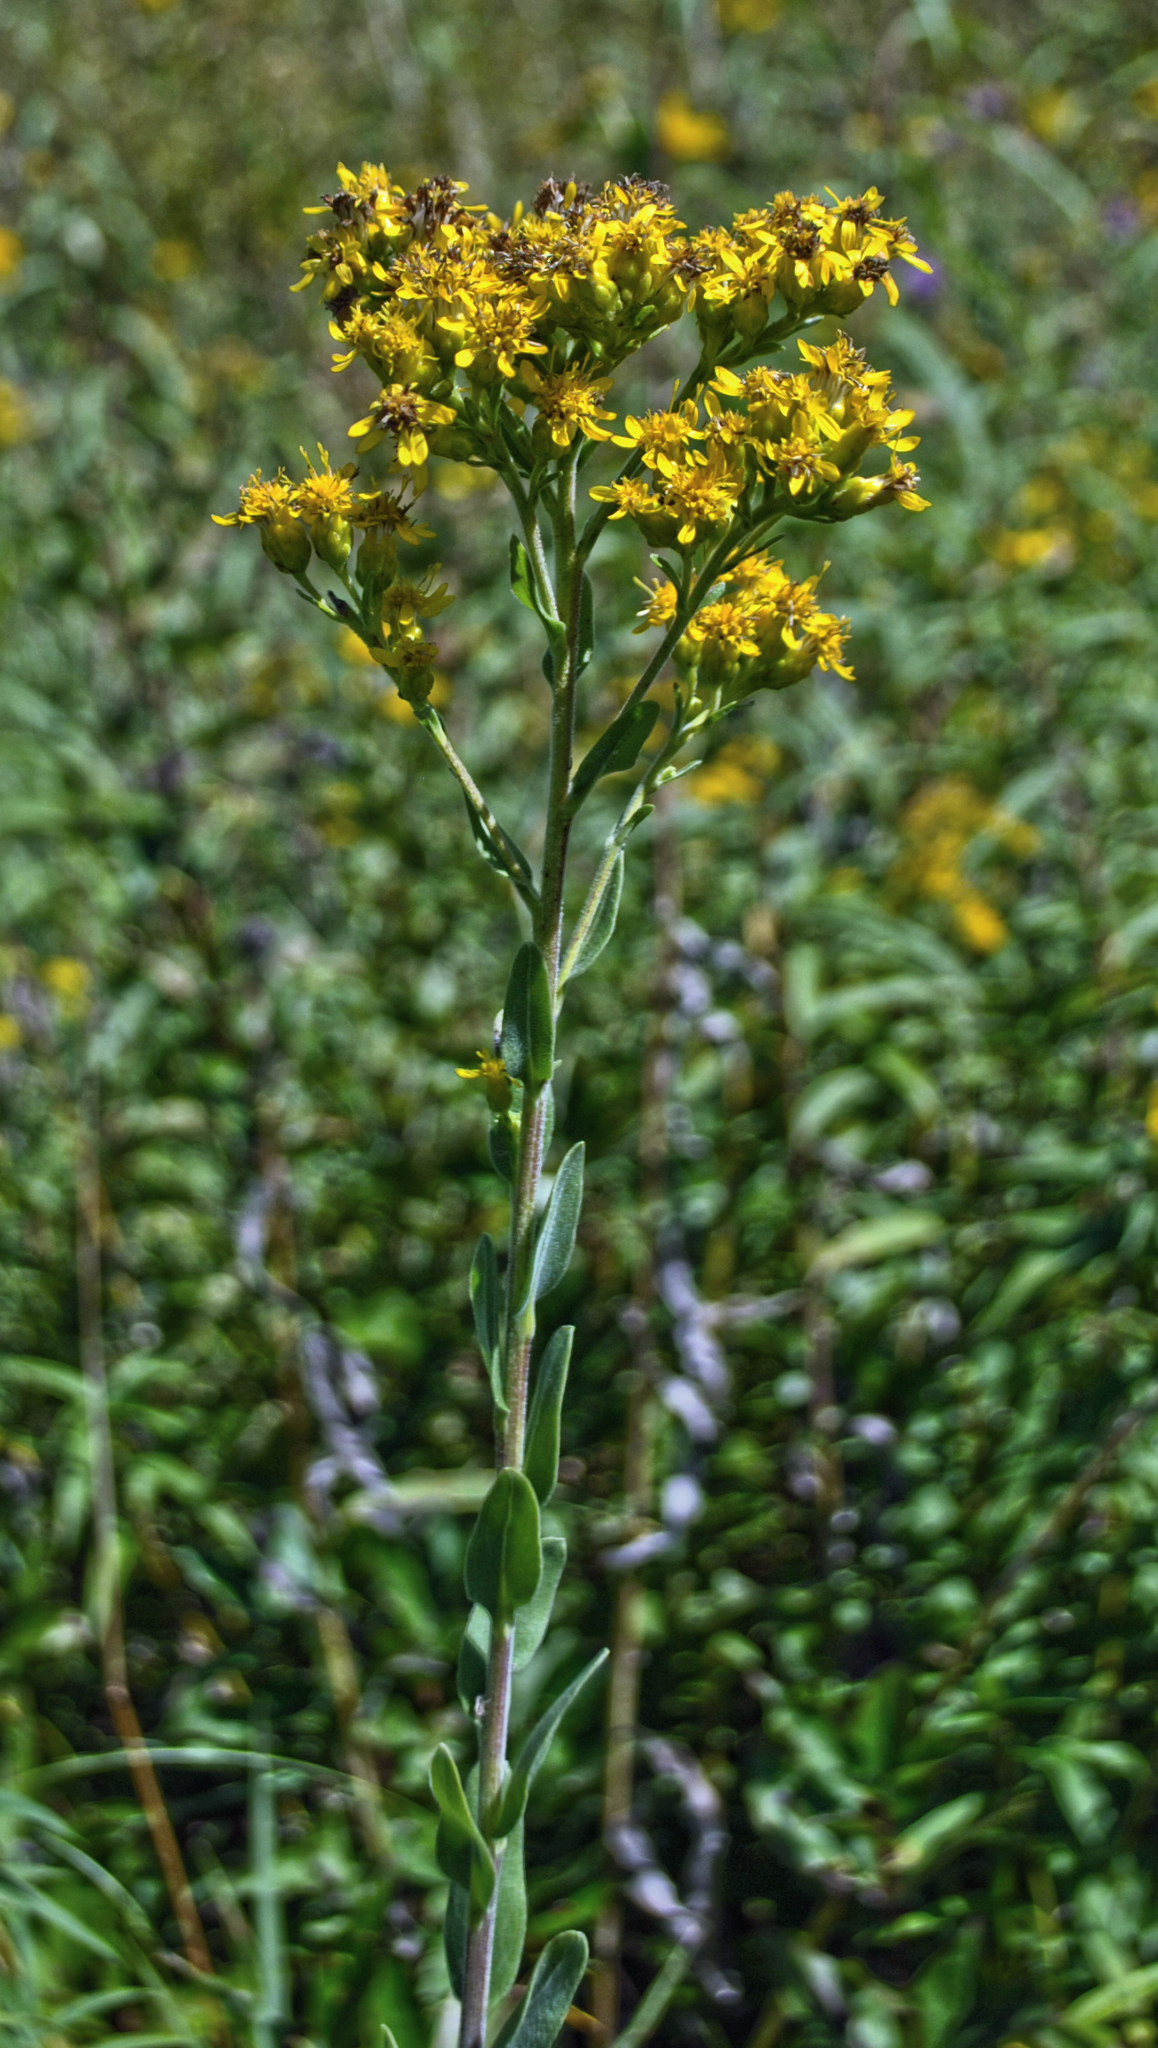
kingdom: Plantae
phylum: Tracheophyta
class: Magnoliopsida
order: Asterales
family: Asteraceae
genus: Solidago
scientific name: Solidago rigida
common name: Rigid goldenrod
